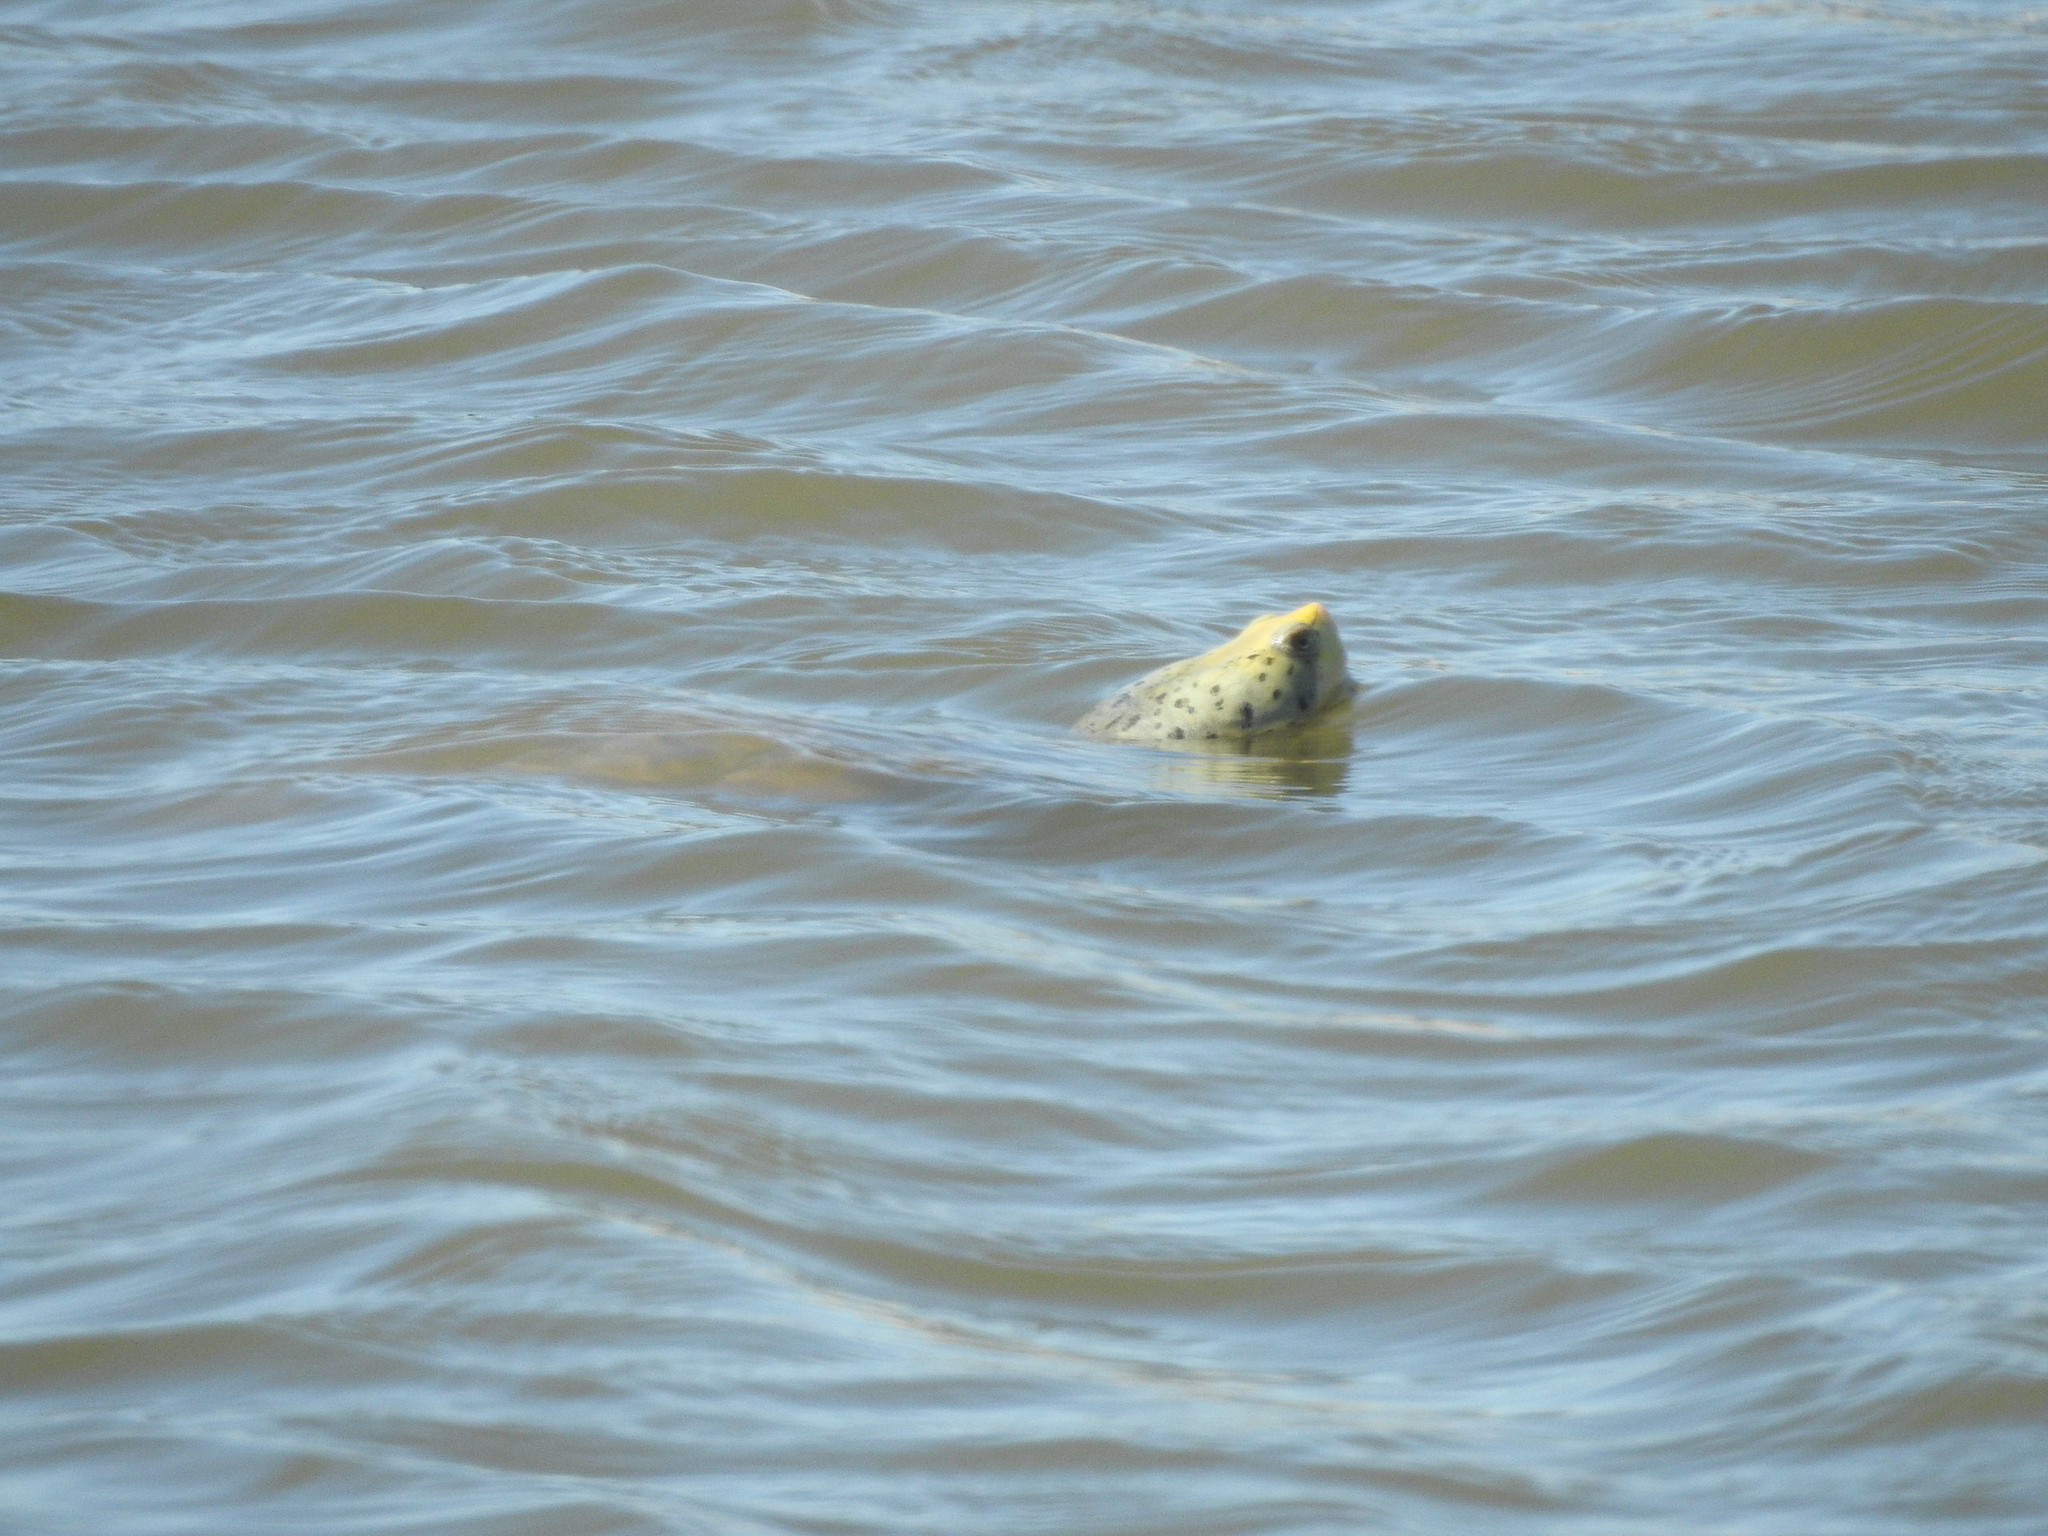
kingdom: Animalia
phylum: Chordata
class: Testudines
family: Emydidae
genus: Malaclemys
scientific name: Malaclemys terrapin
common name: Diamondback terrapin
